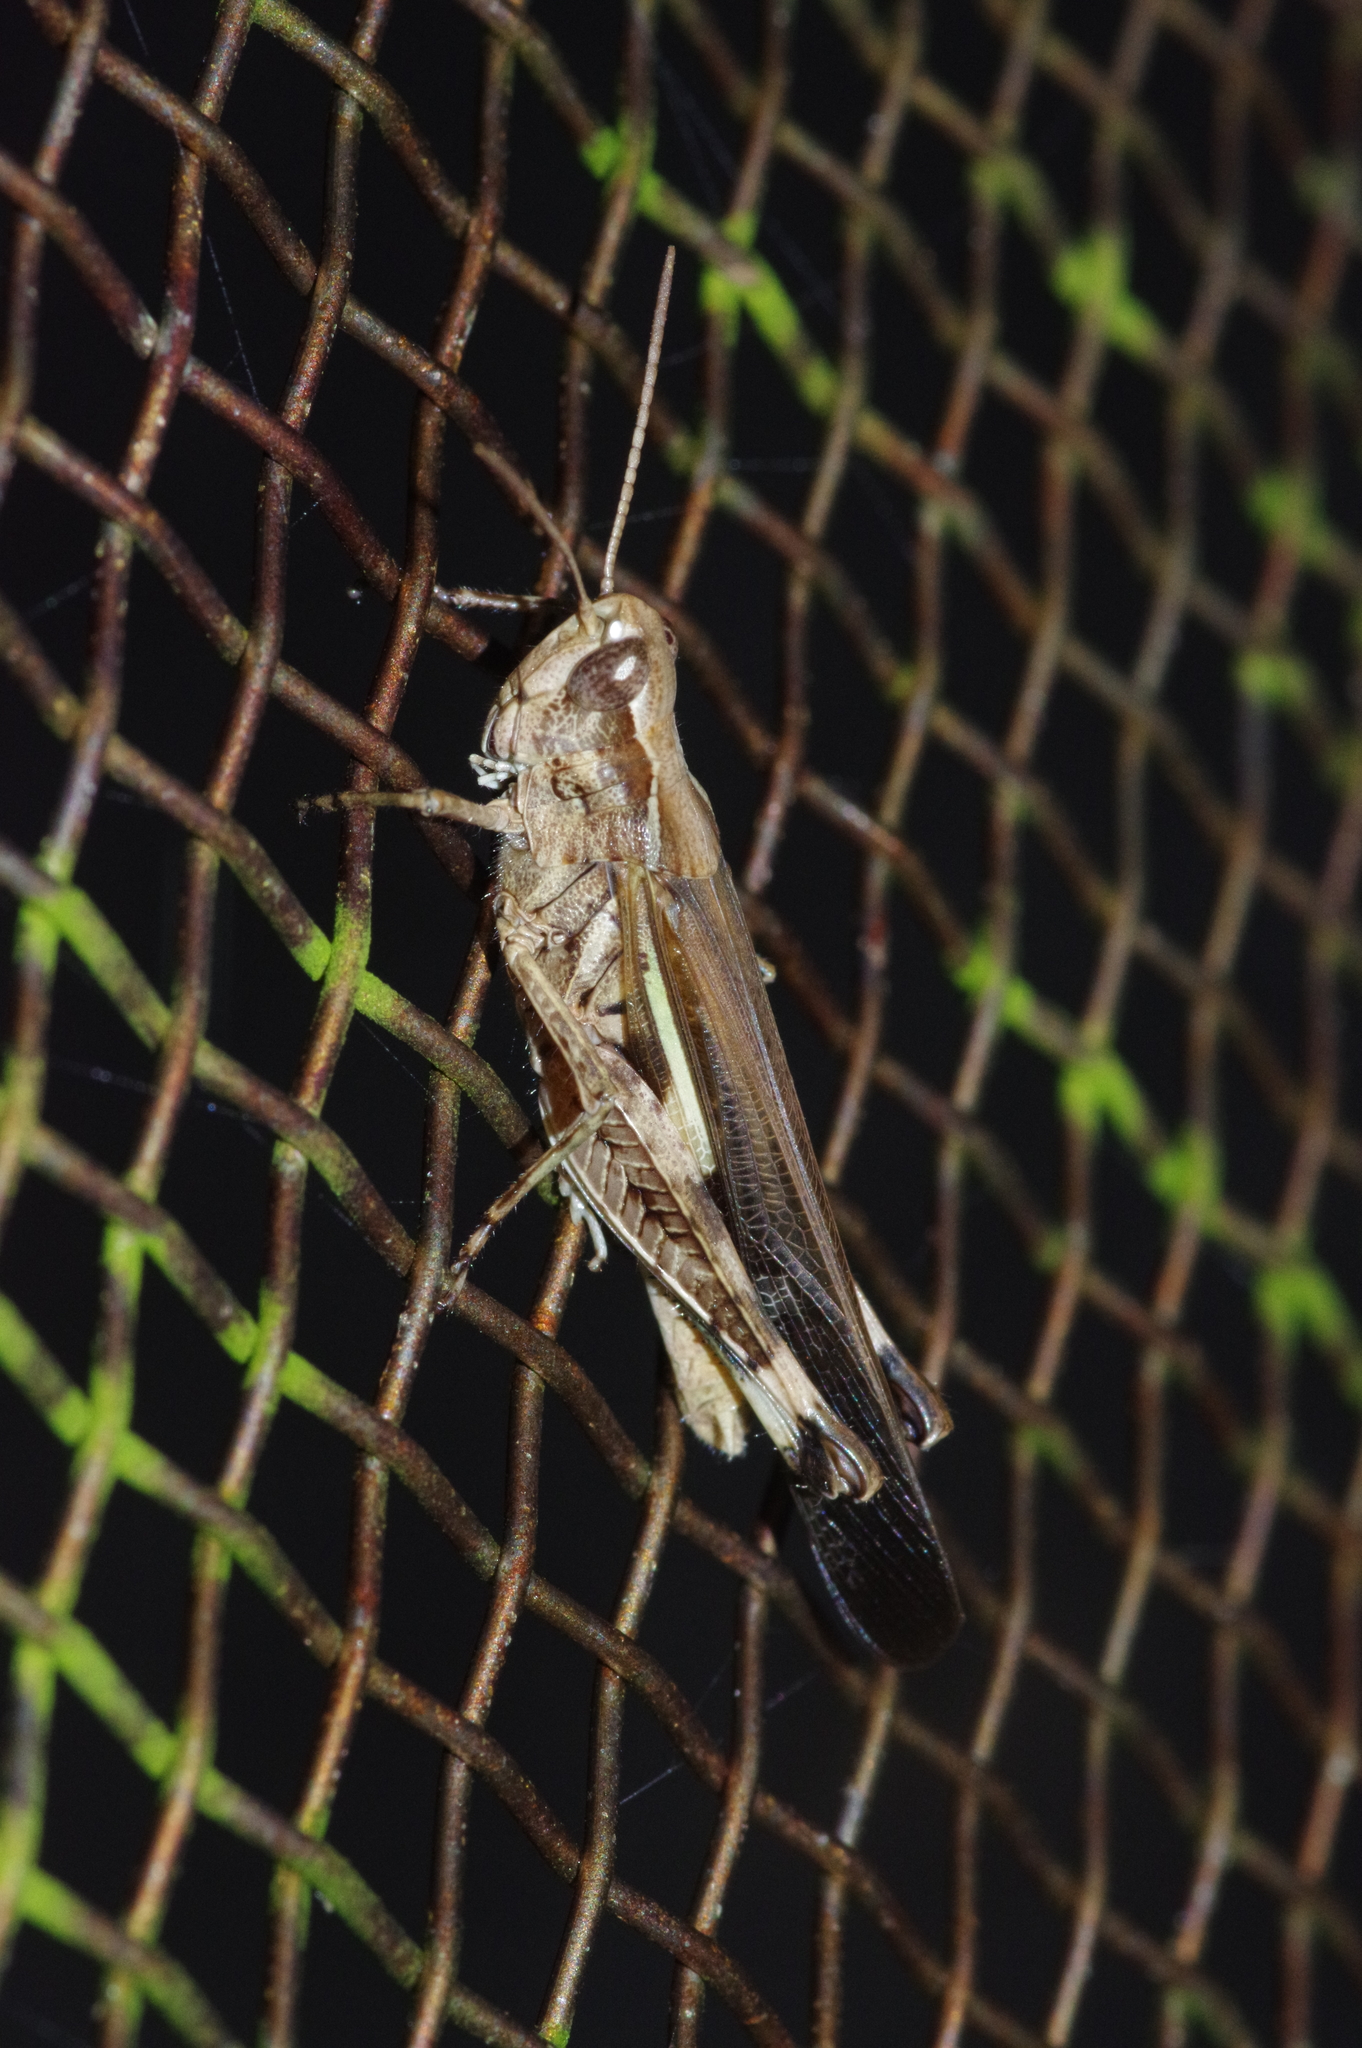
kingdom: Animalia
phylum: Arthropoda
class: Insecta
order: Orthoptera
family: Acrididae
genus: Aiolopus
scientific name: Aiolopus thalassinus
